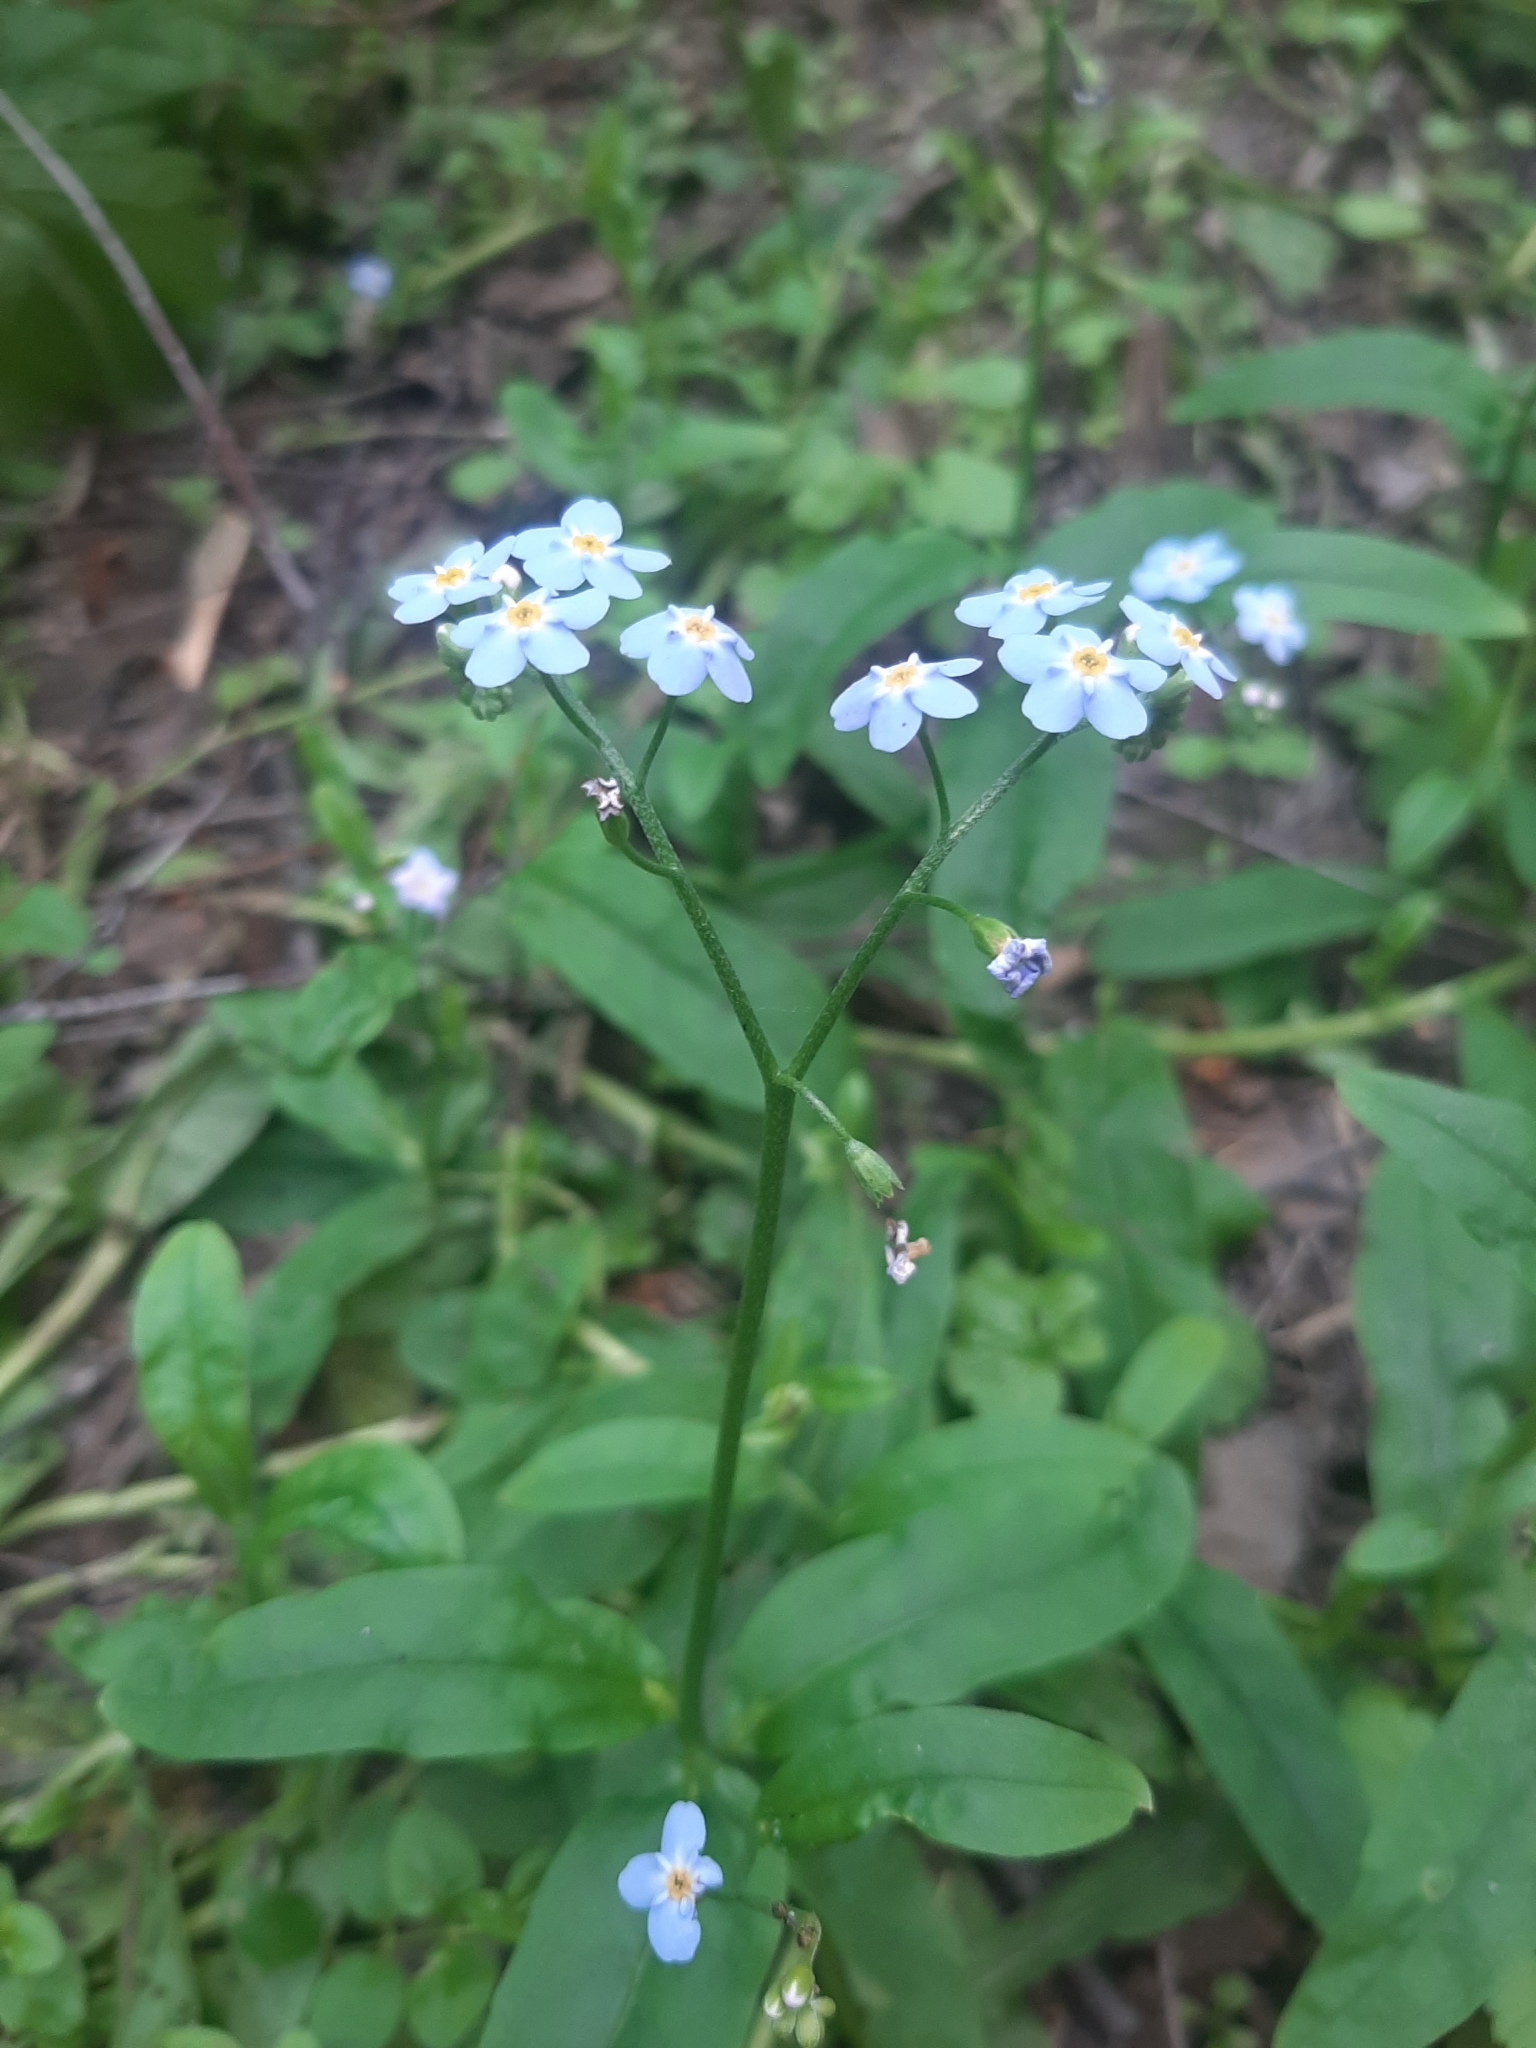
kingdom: Plantae
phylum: Tracheophyta
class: Magnoliopsida
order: Boraginales
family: Boraginaceae
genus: Myosotis
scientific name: Myosotis scorpioides
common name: Water forget-me-not
